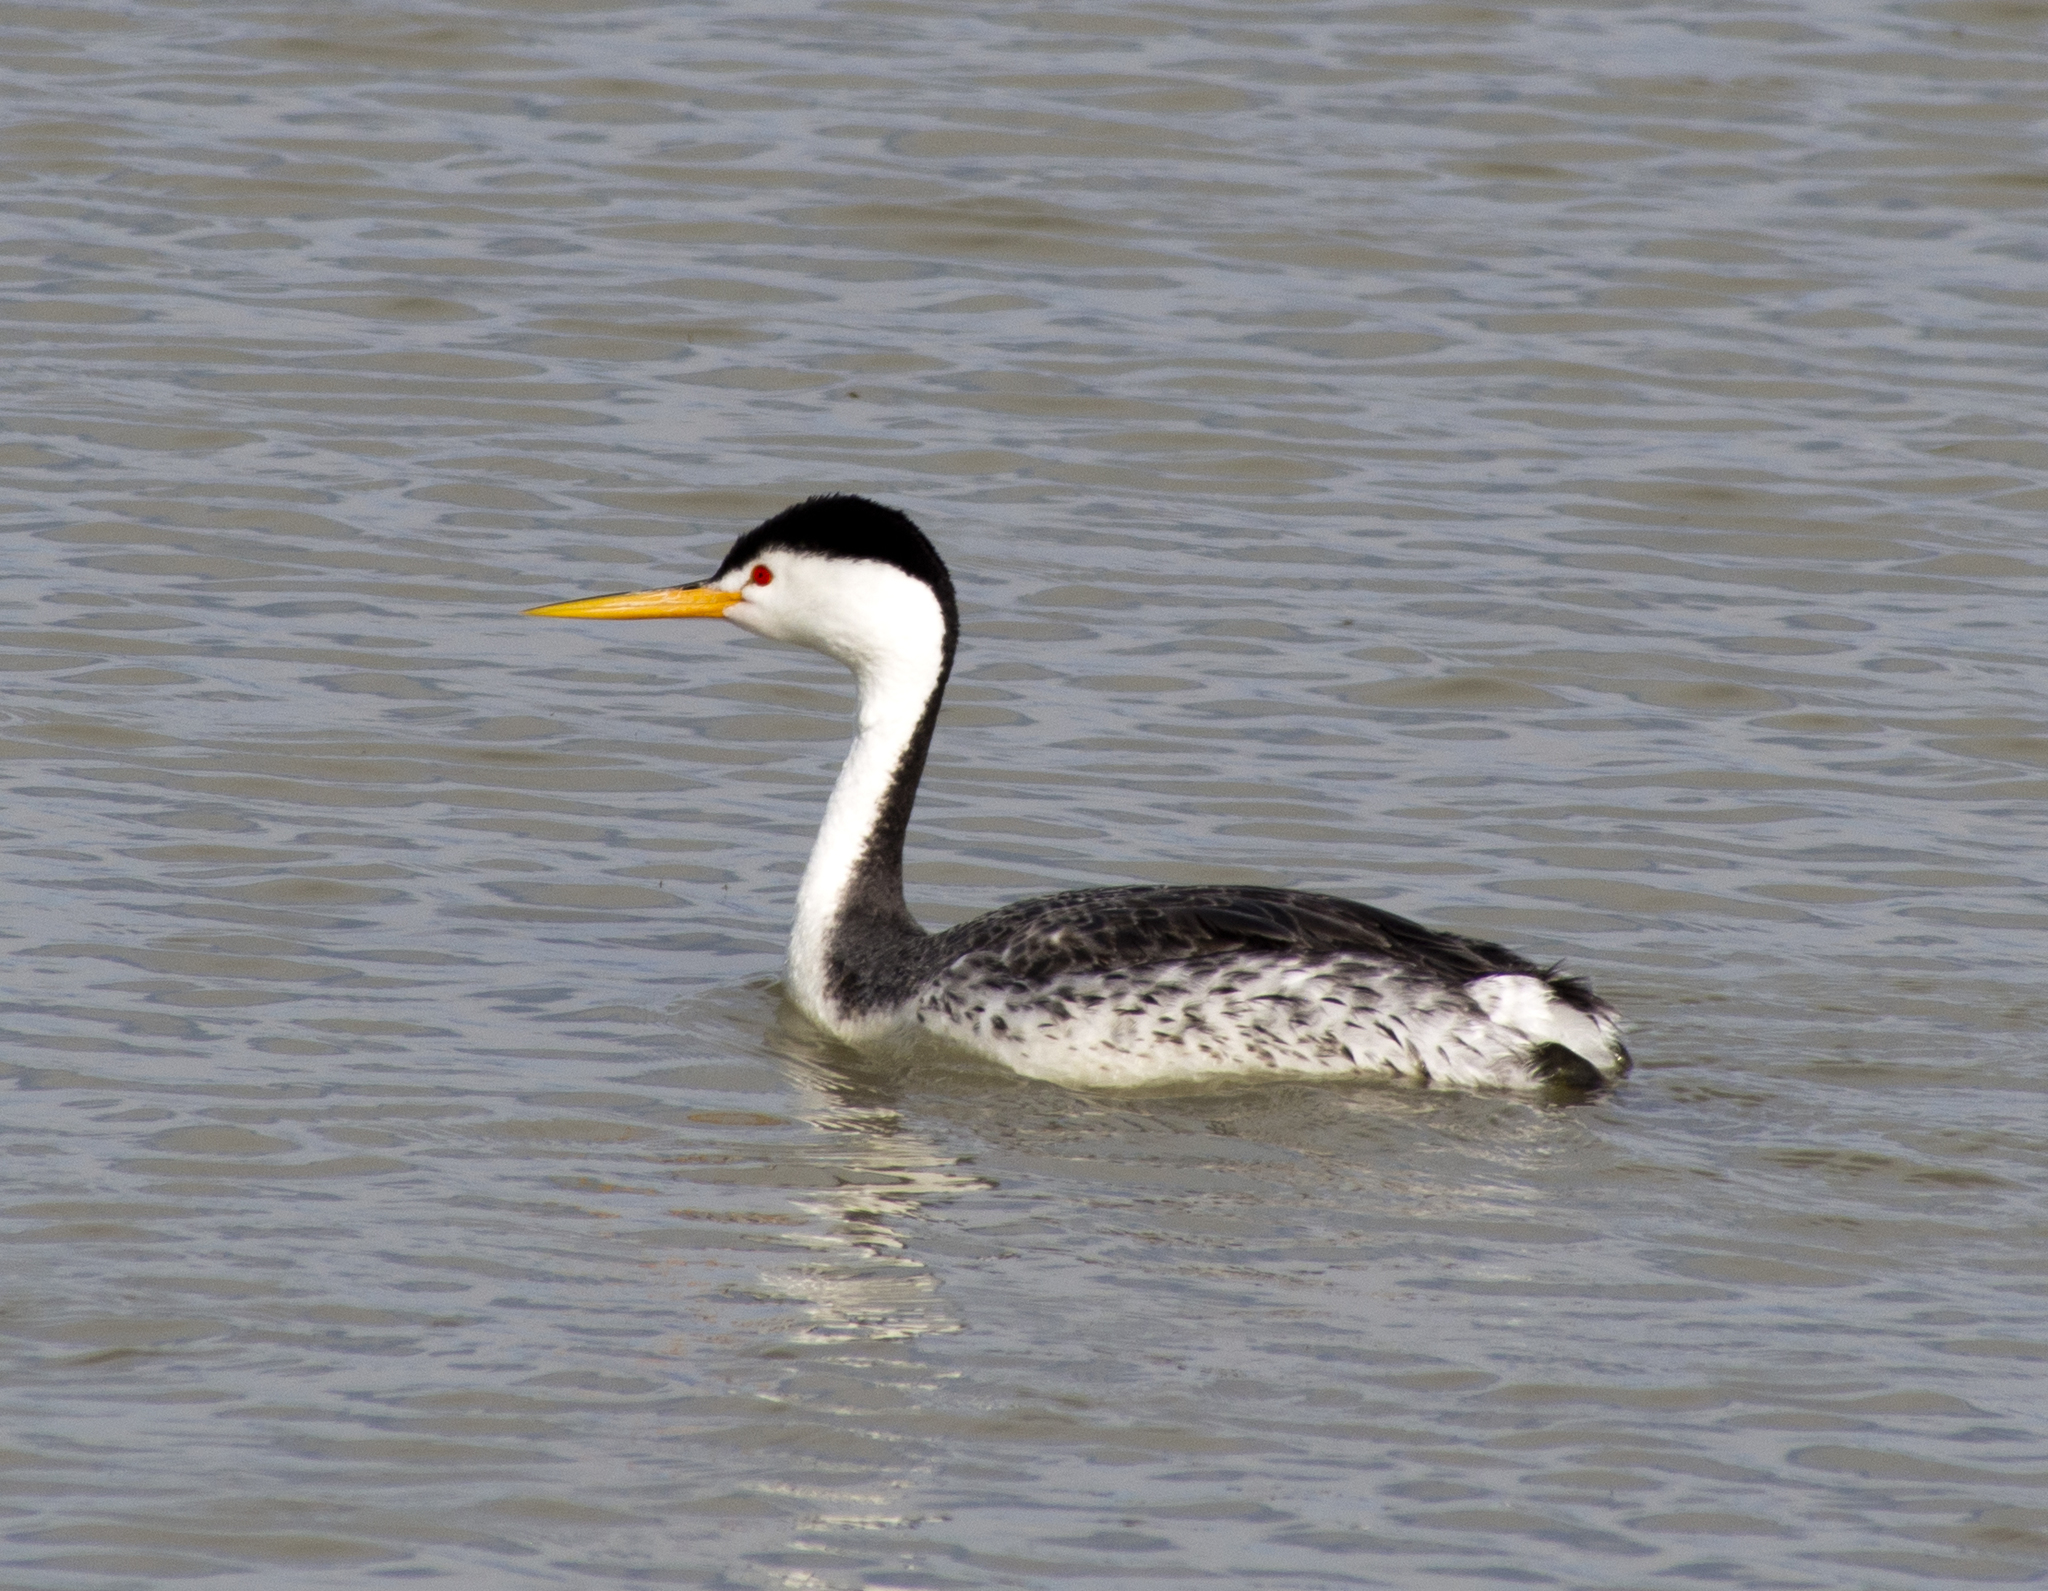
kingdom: Animalia
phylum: Chordata
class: Aves
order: Podicipediformes
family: Podicipedidae
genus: Aechmophorus
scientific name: Aechmophorus clarkii
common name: Clark's grebe
